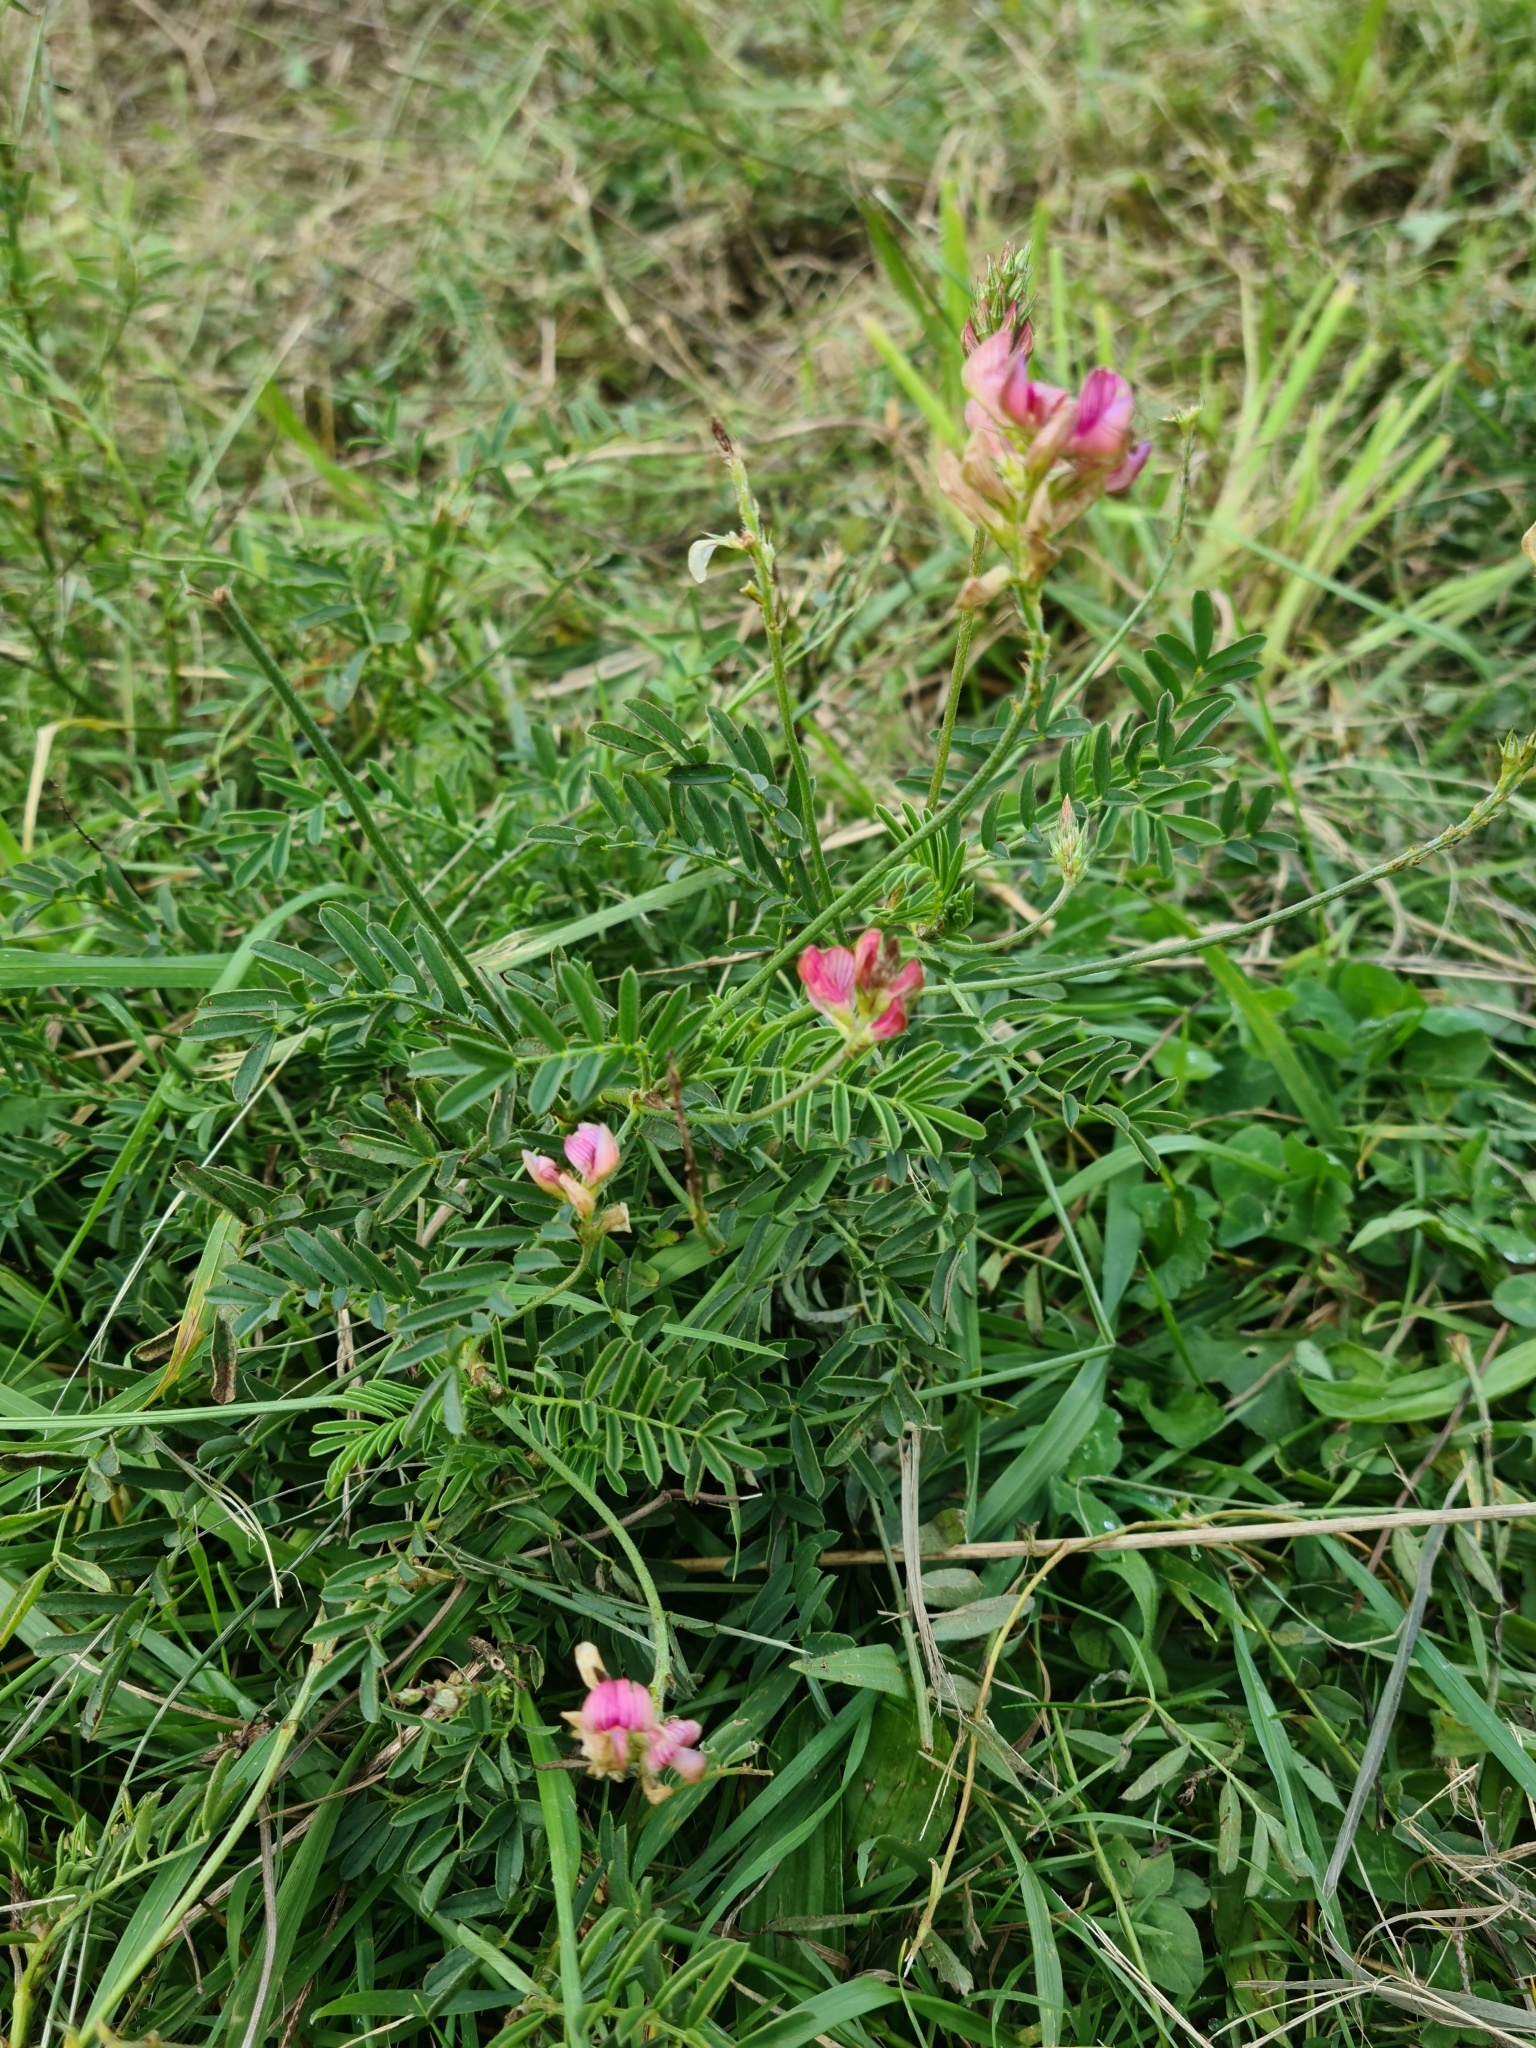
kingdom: Plantae
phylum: Tracheophyta
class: Magnoliopsida
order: Fabales
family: Fabaceae
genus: Onobrychis
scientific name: Onobrychis viciifolia
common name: Sainfoin
